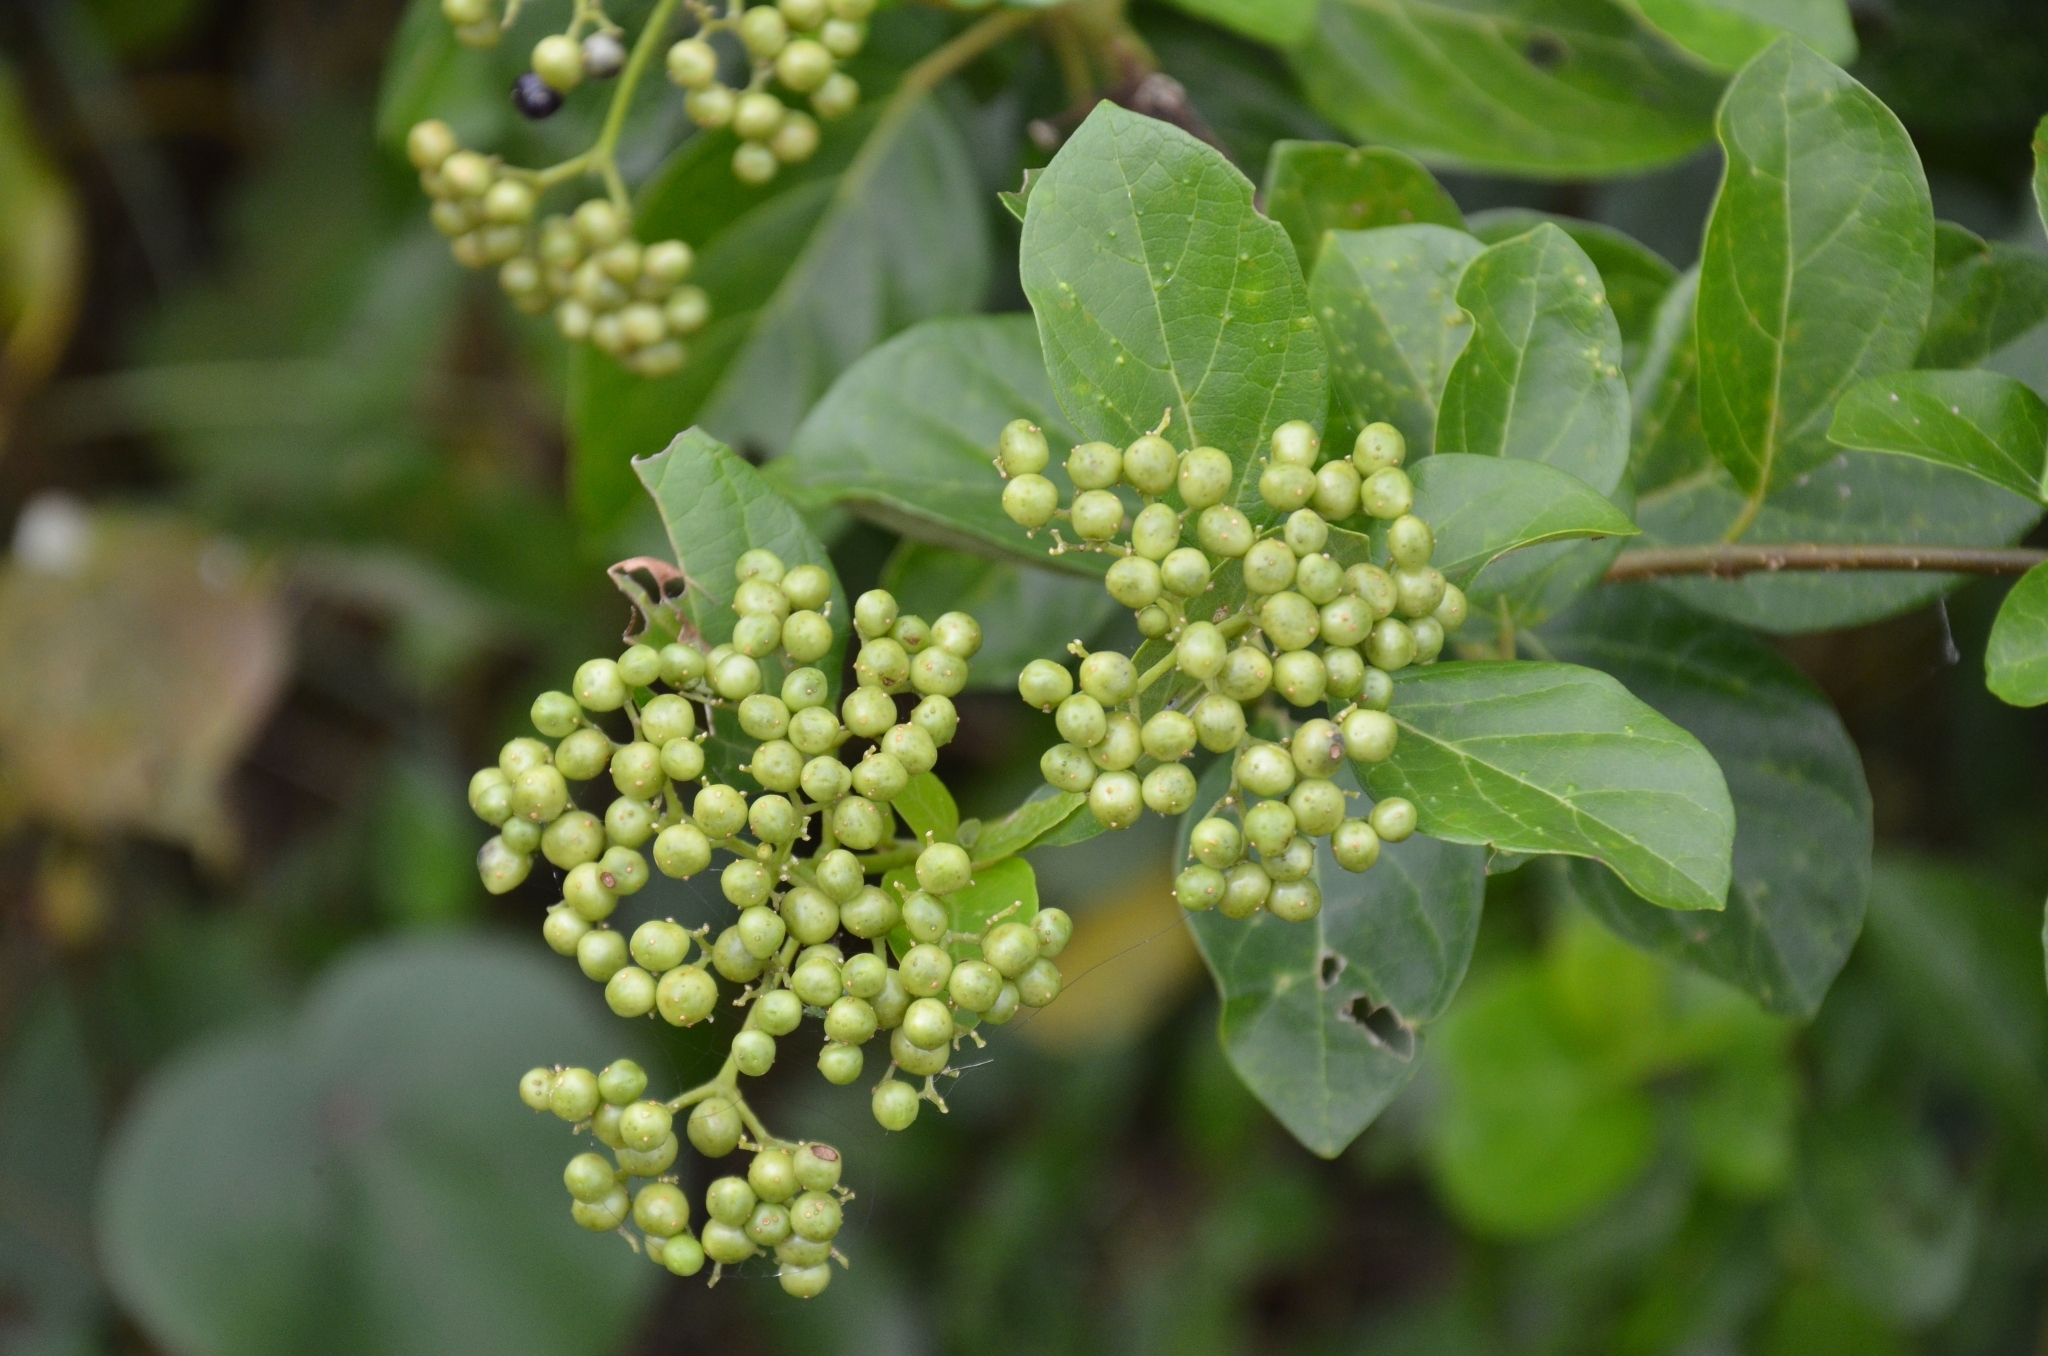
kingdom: Plantae
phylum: Tracheophyta
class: Magnoliopsida
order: Lamiales
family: Lamiaceae
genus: Premna
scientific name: Premna serratifolia
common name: Bastard guelder
